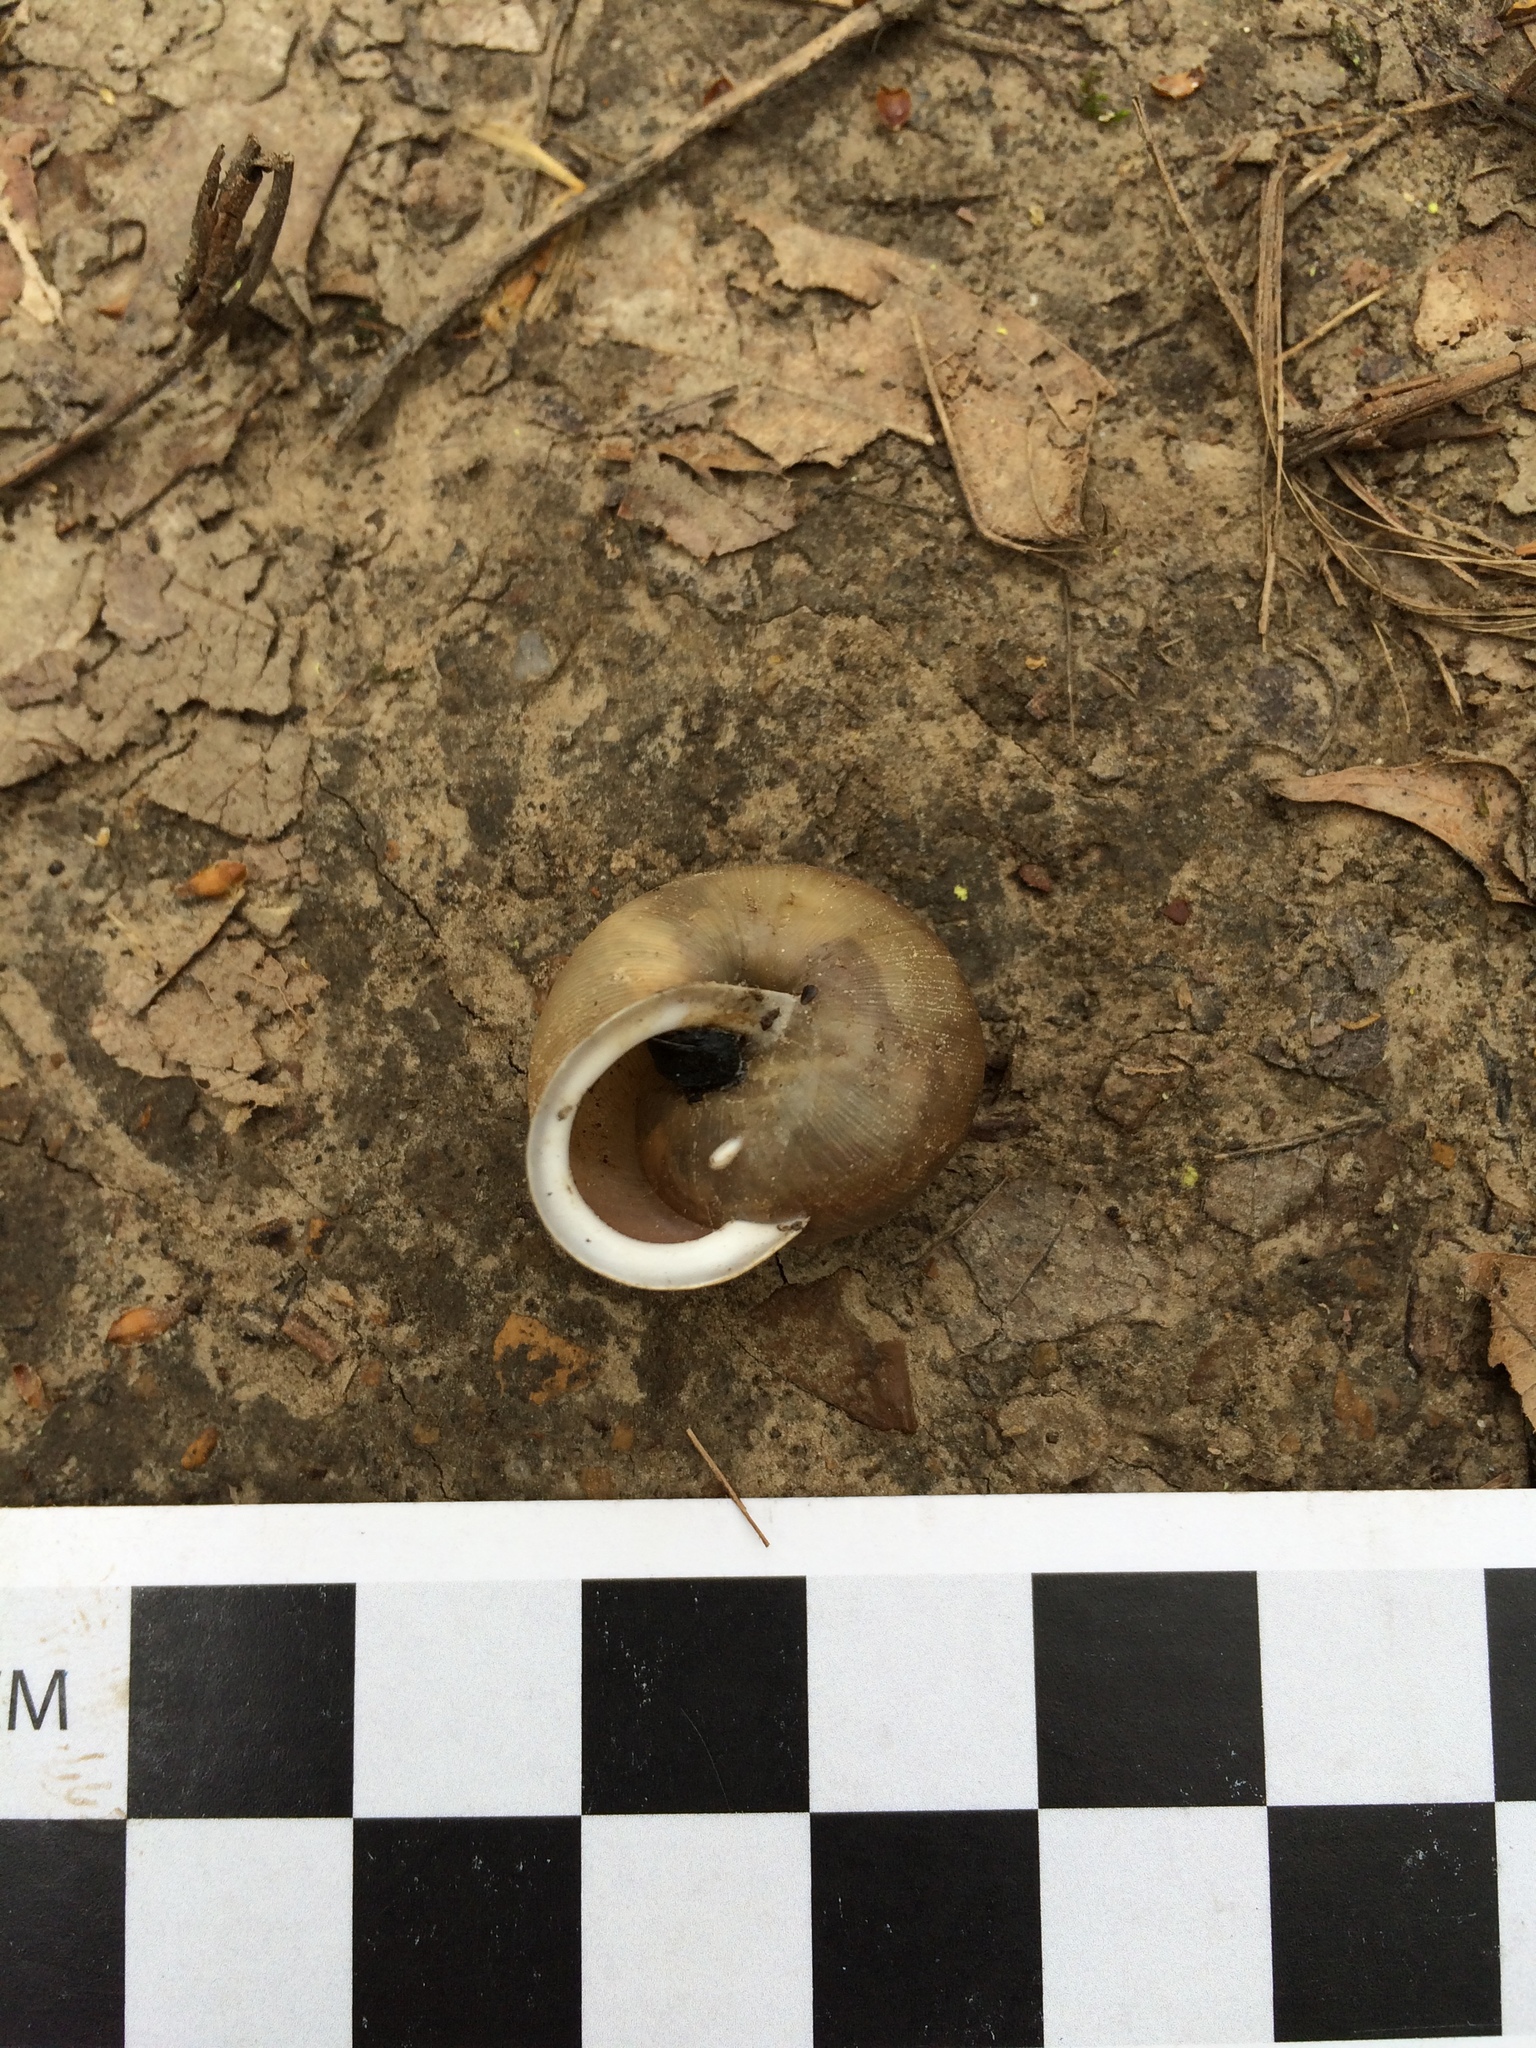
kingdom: Animalia
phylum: Mollusca
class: Gastropoda
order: Stylommatophora
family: Polygyridae
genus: Mesodon
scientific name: Mesodon thyroidus
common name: White-lip globe
